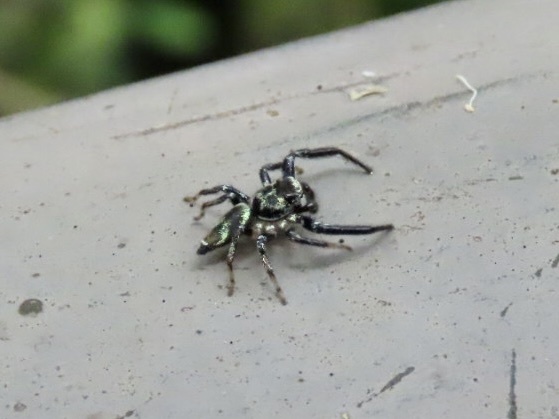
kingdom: Animalia
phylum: Arthropoda
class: Arachnida
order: Araneae
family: Salticidae
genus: Thiania
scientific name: Thiania bhamoensis
